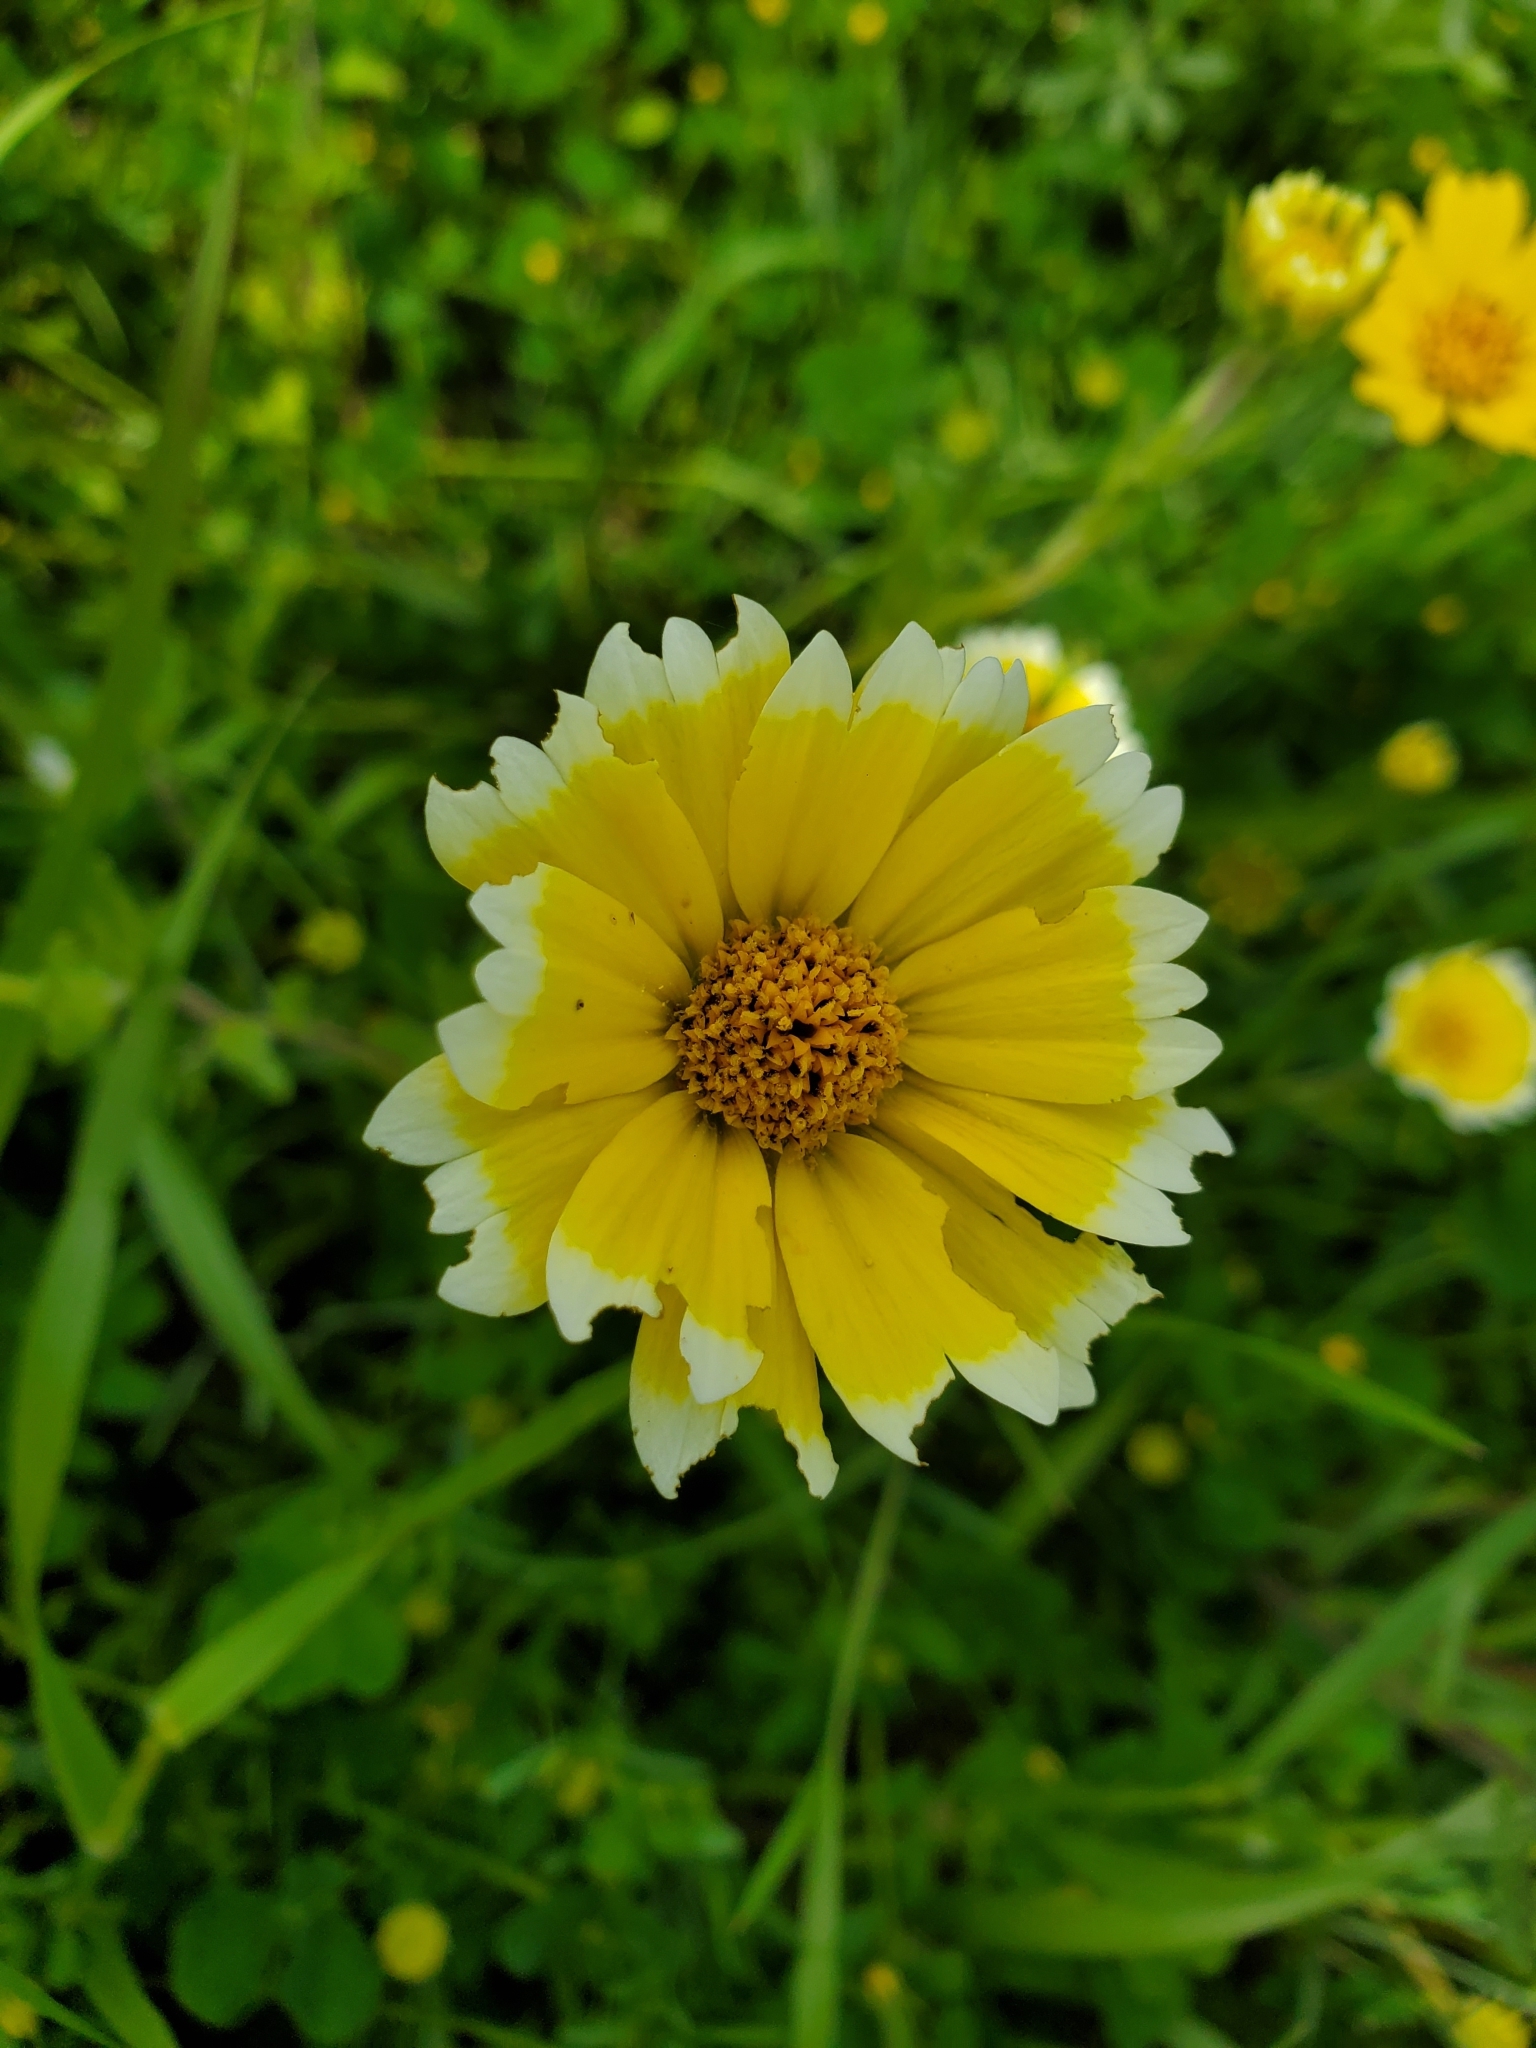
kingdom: Plantae
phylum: Tracheophyta
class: Magnoliopsida
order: Asterales
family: Asteraceae
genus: Layia
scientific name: Layia platyglossa
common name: Tidy-tips
